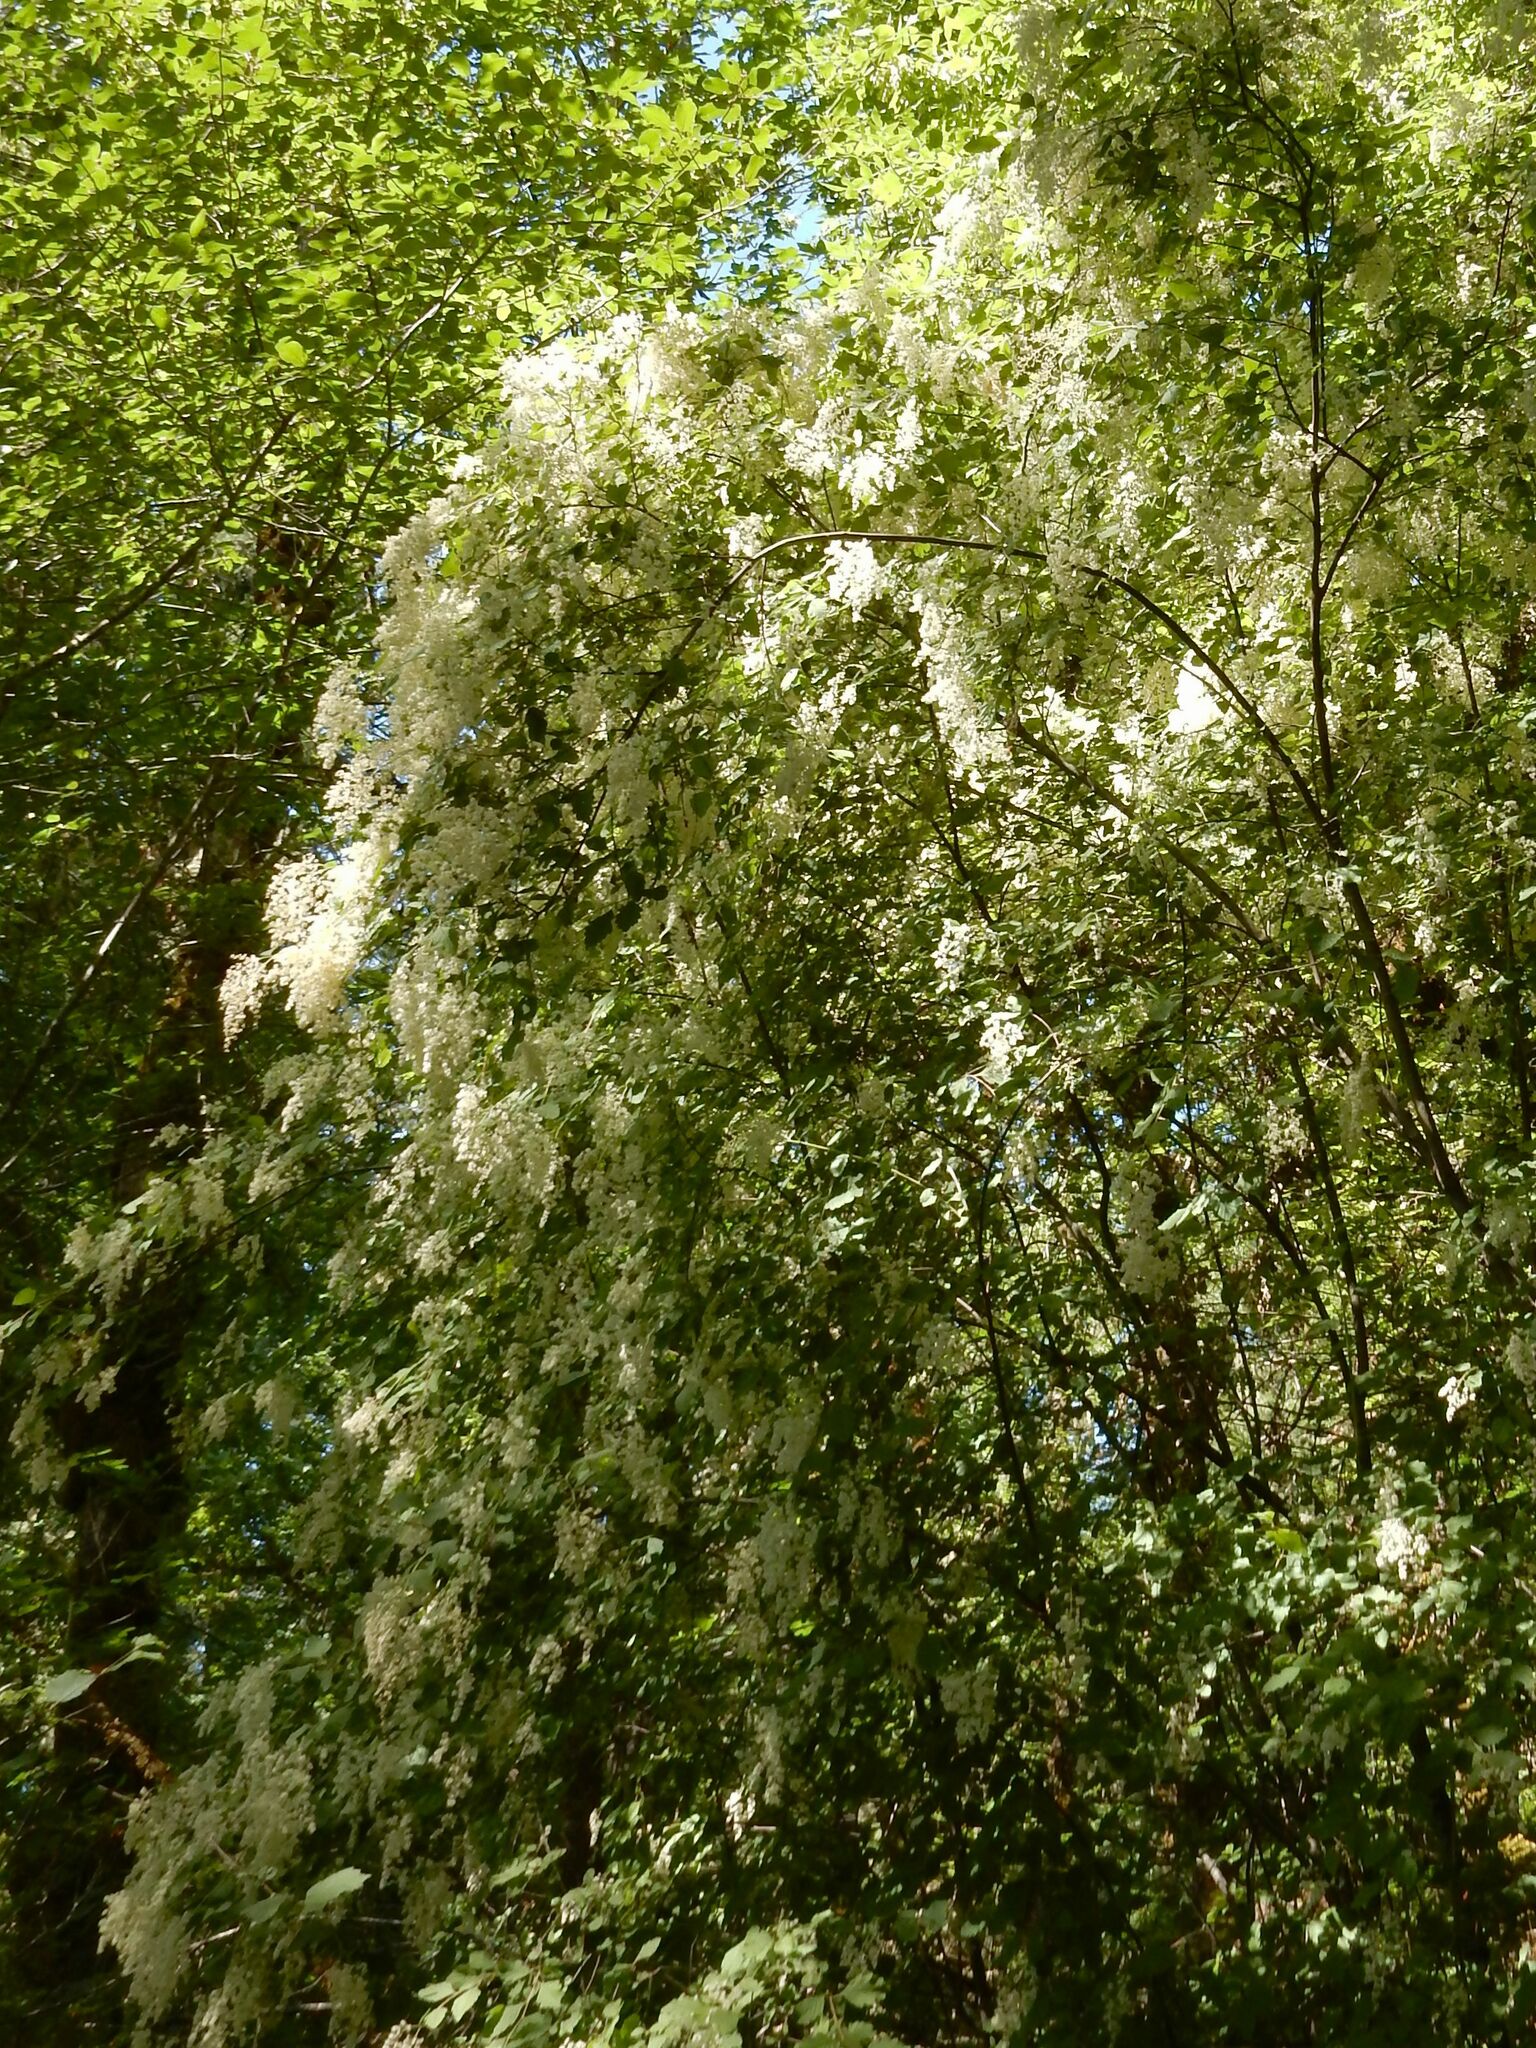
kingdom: Plantae
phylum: Tracheophyta
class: Magnoliopsida
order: Rosales
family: Rosaceae
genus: Holodiscus
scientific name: Holodiscus discolor
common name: Oceanspray
